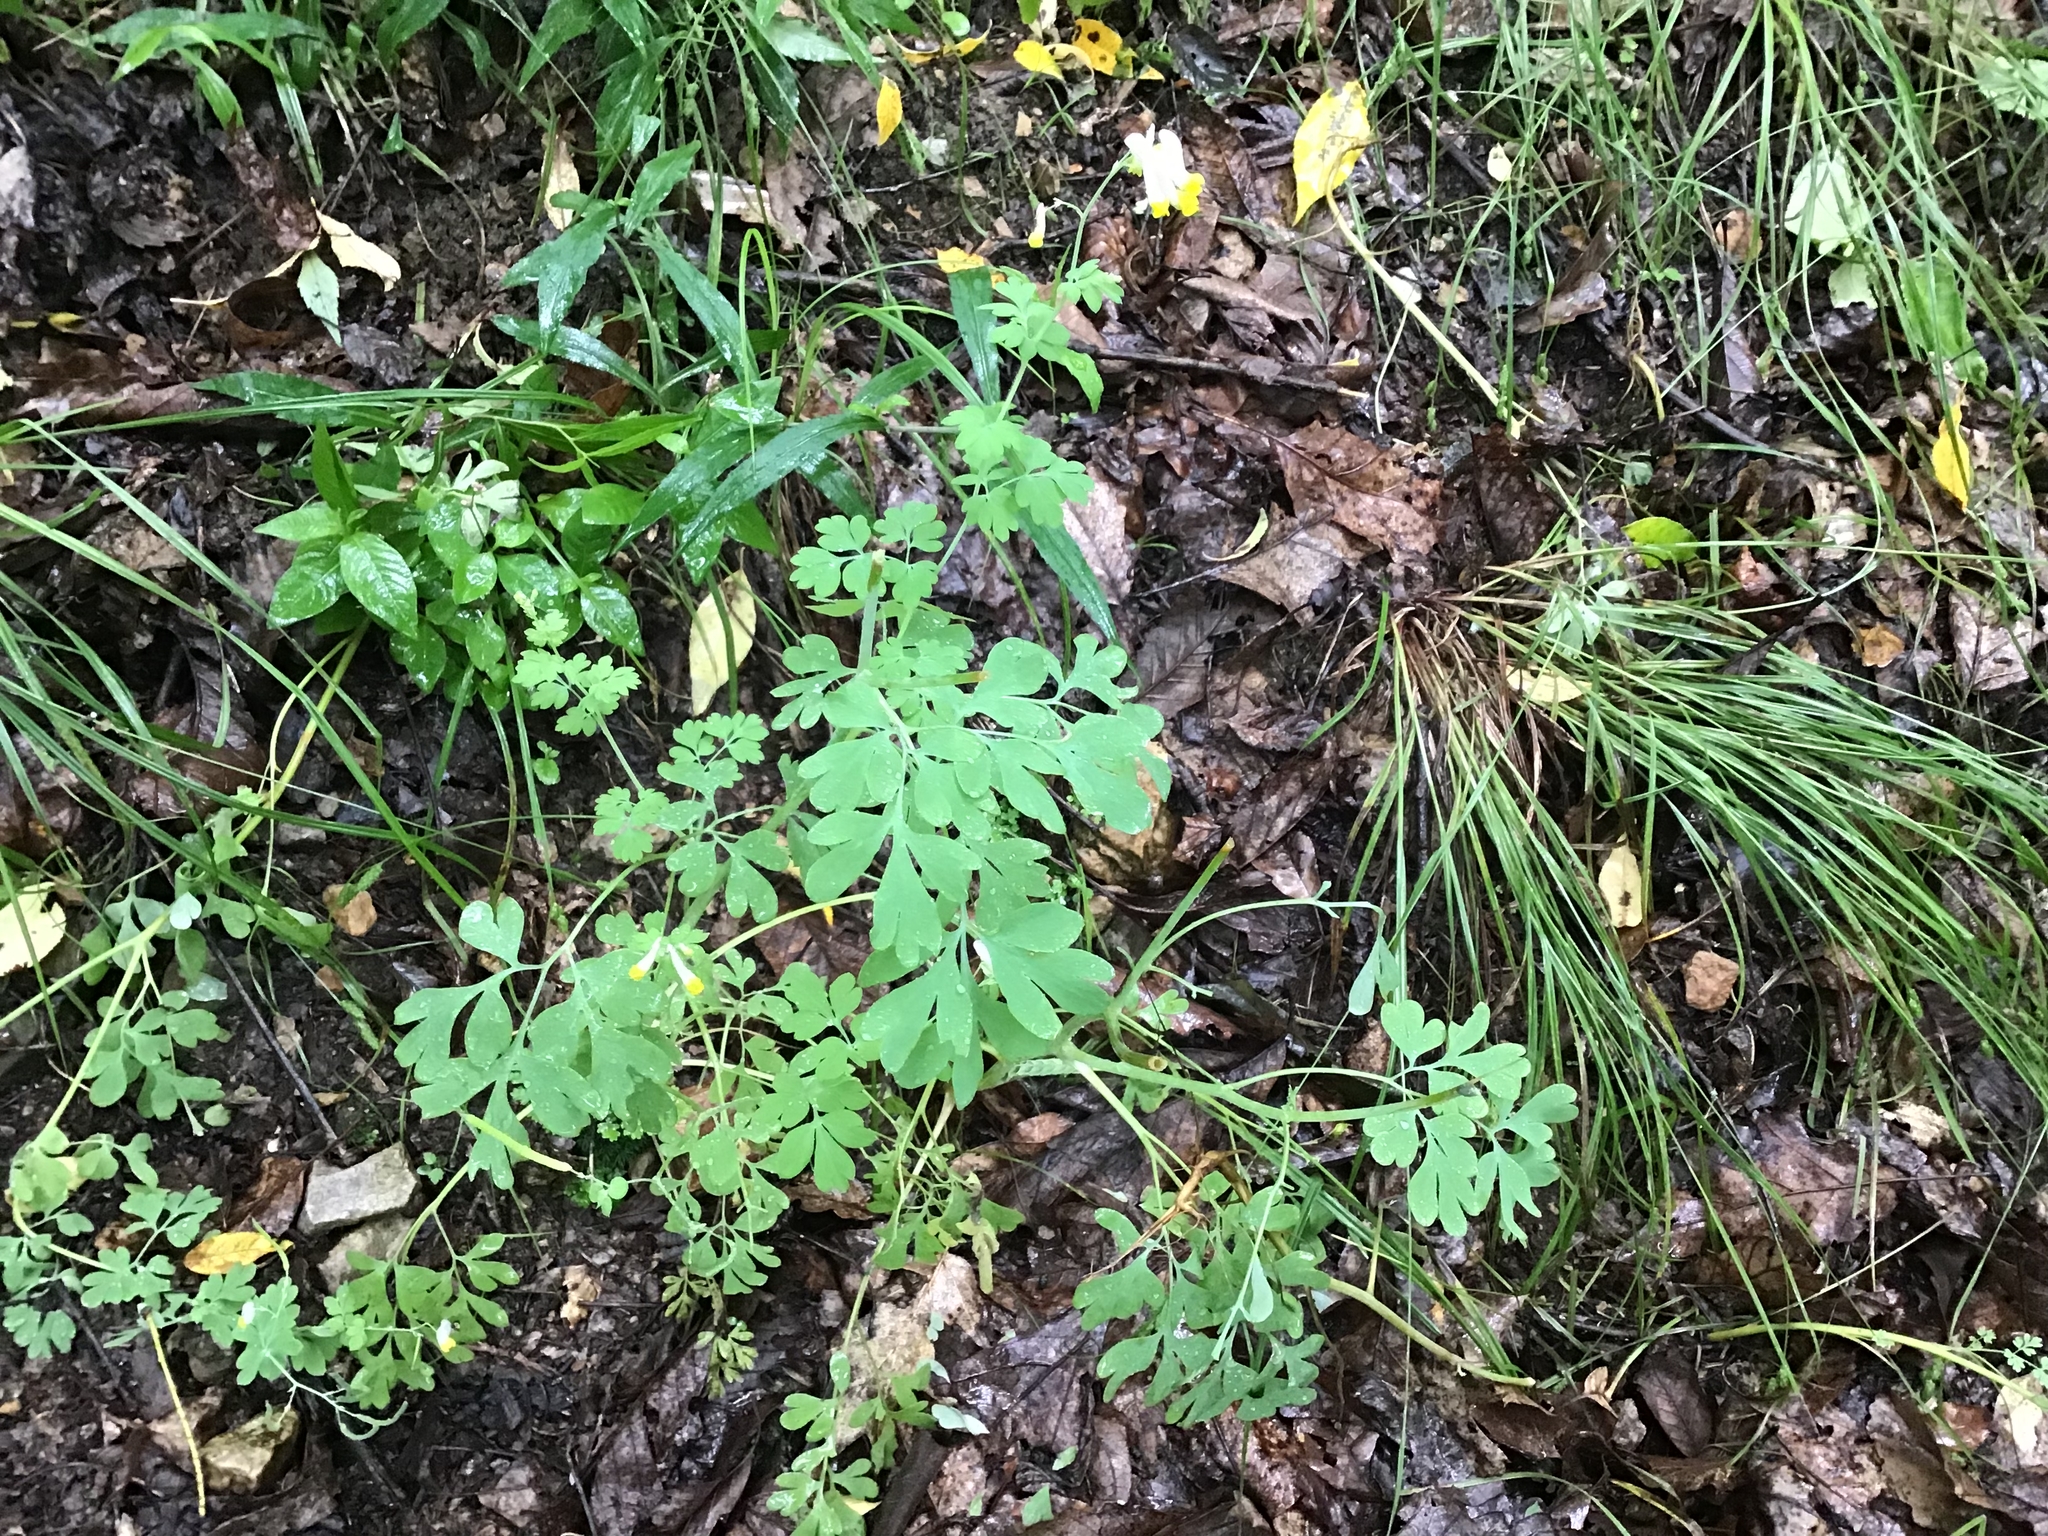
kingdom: Plantae
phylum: Tracheophyta
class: Magnoliopsida
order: Ranunculales
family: Papaveraceae
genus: Capnoides
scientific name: Capnoides sempervirens
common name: Rock harlequin
